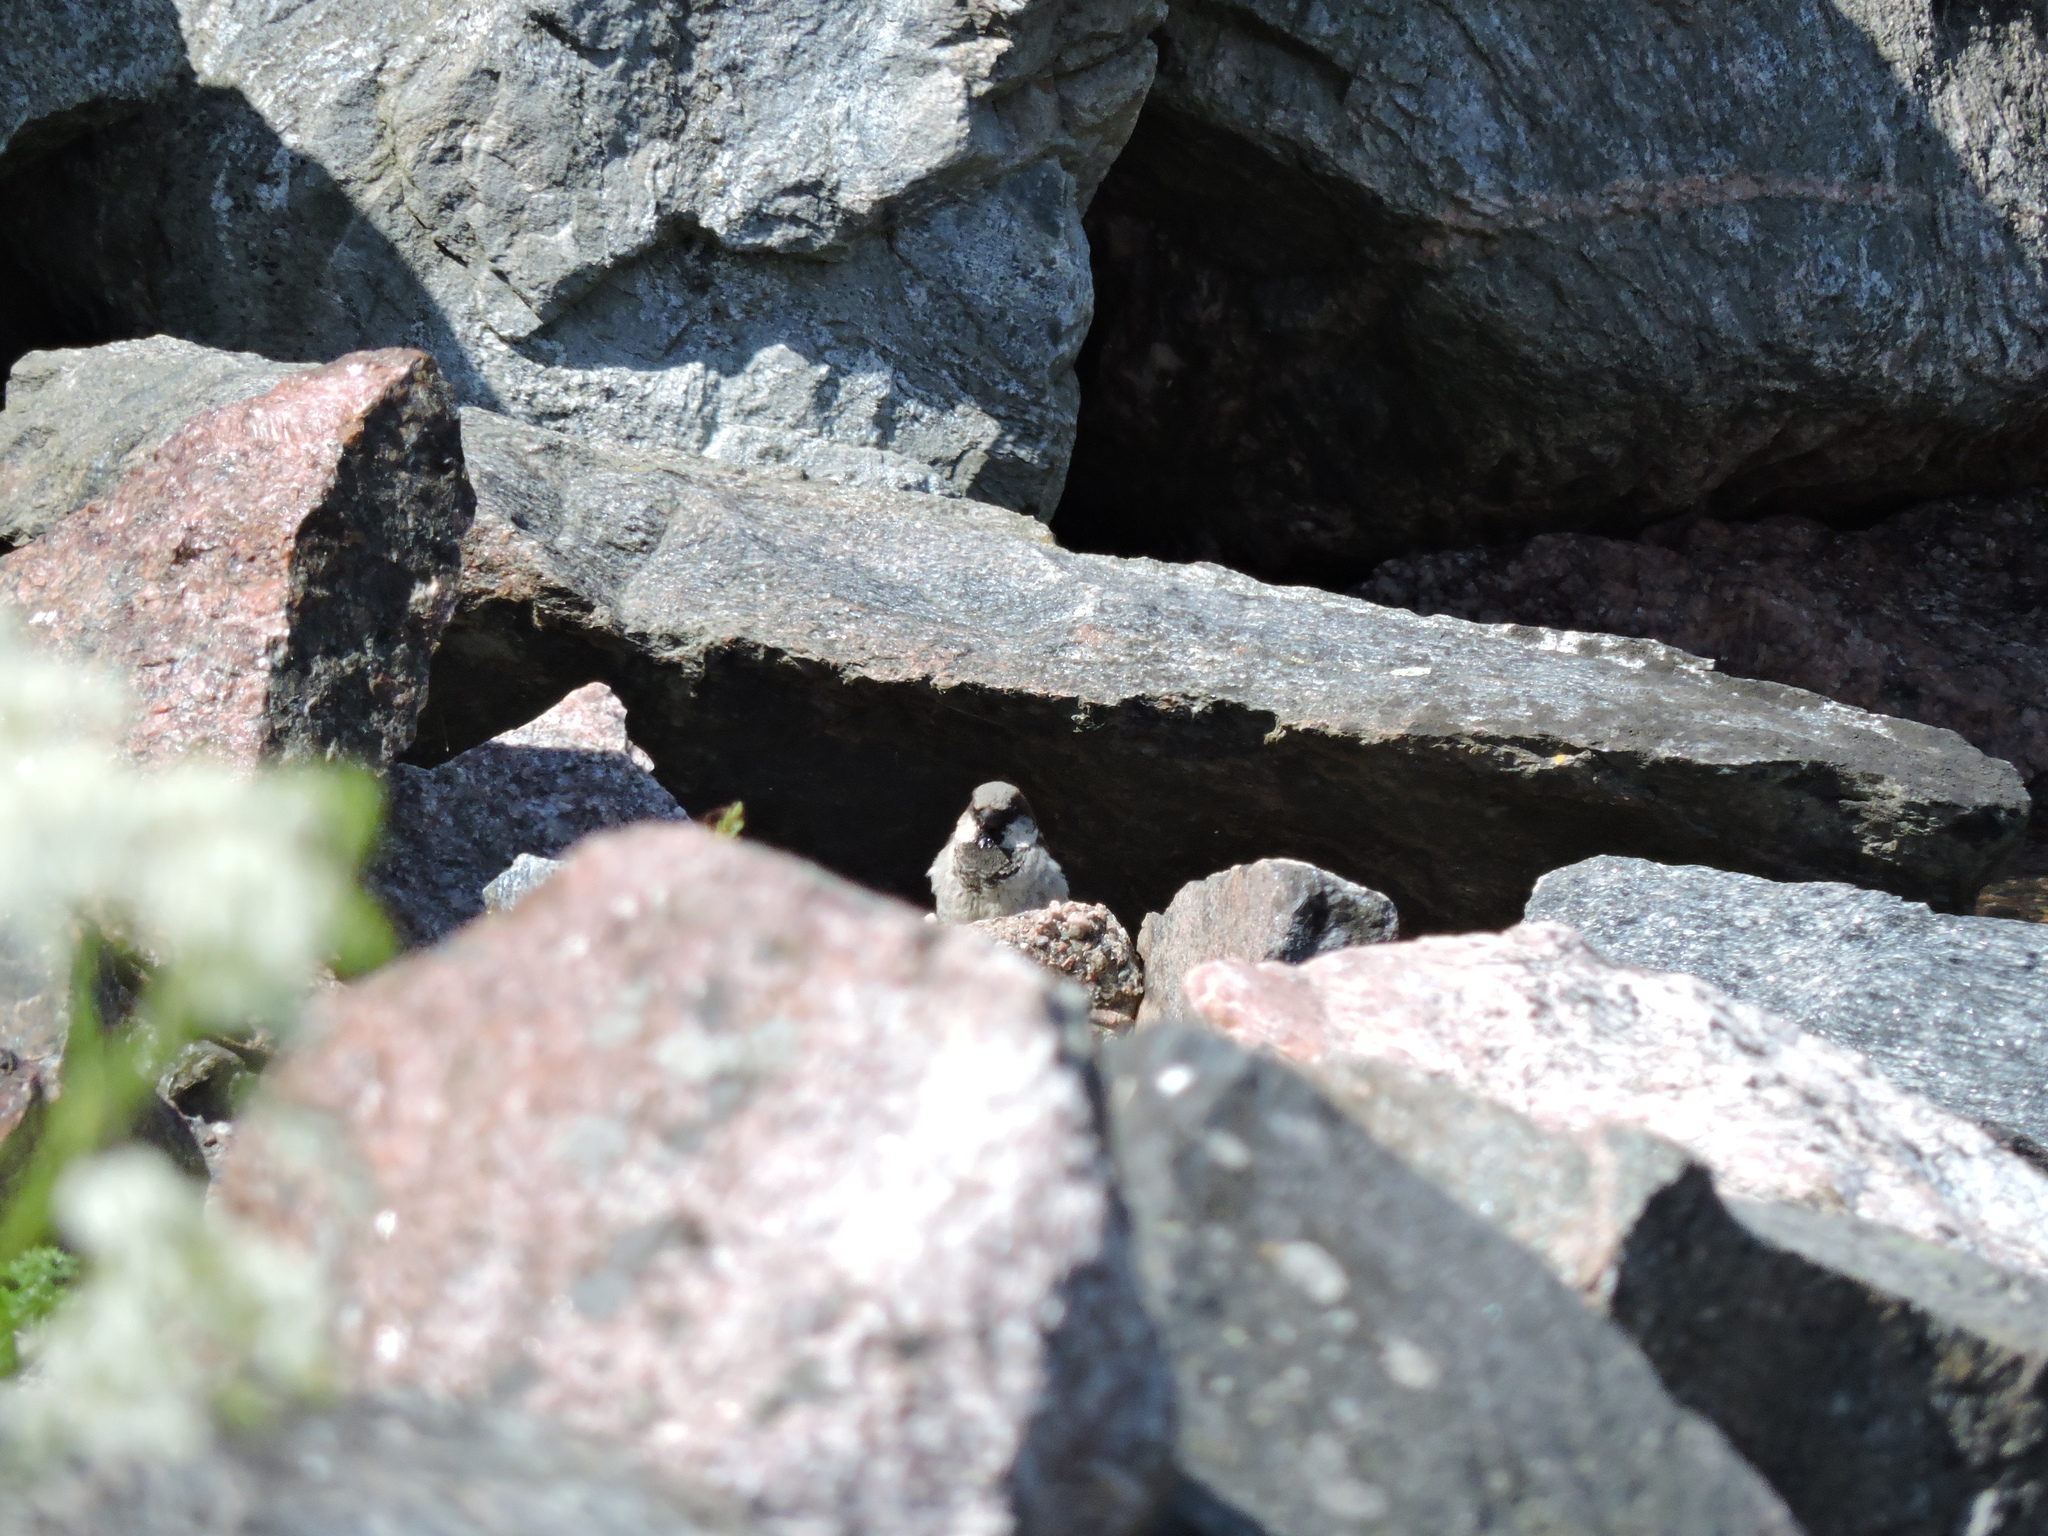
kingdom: Animalia
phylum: Chordata
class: Aves
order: Passeriformes
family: Passeridae
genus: Passer
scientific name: Passer domesticus
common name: House sparrow
